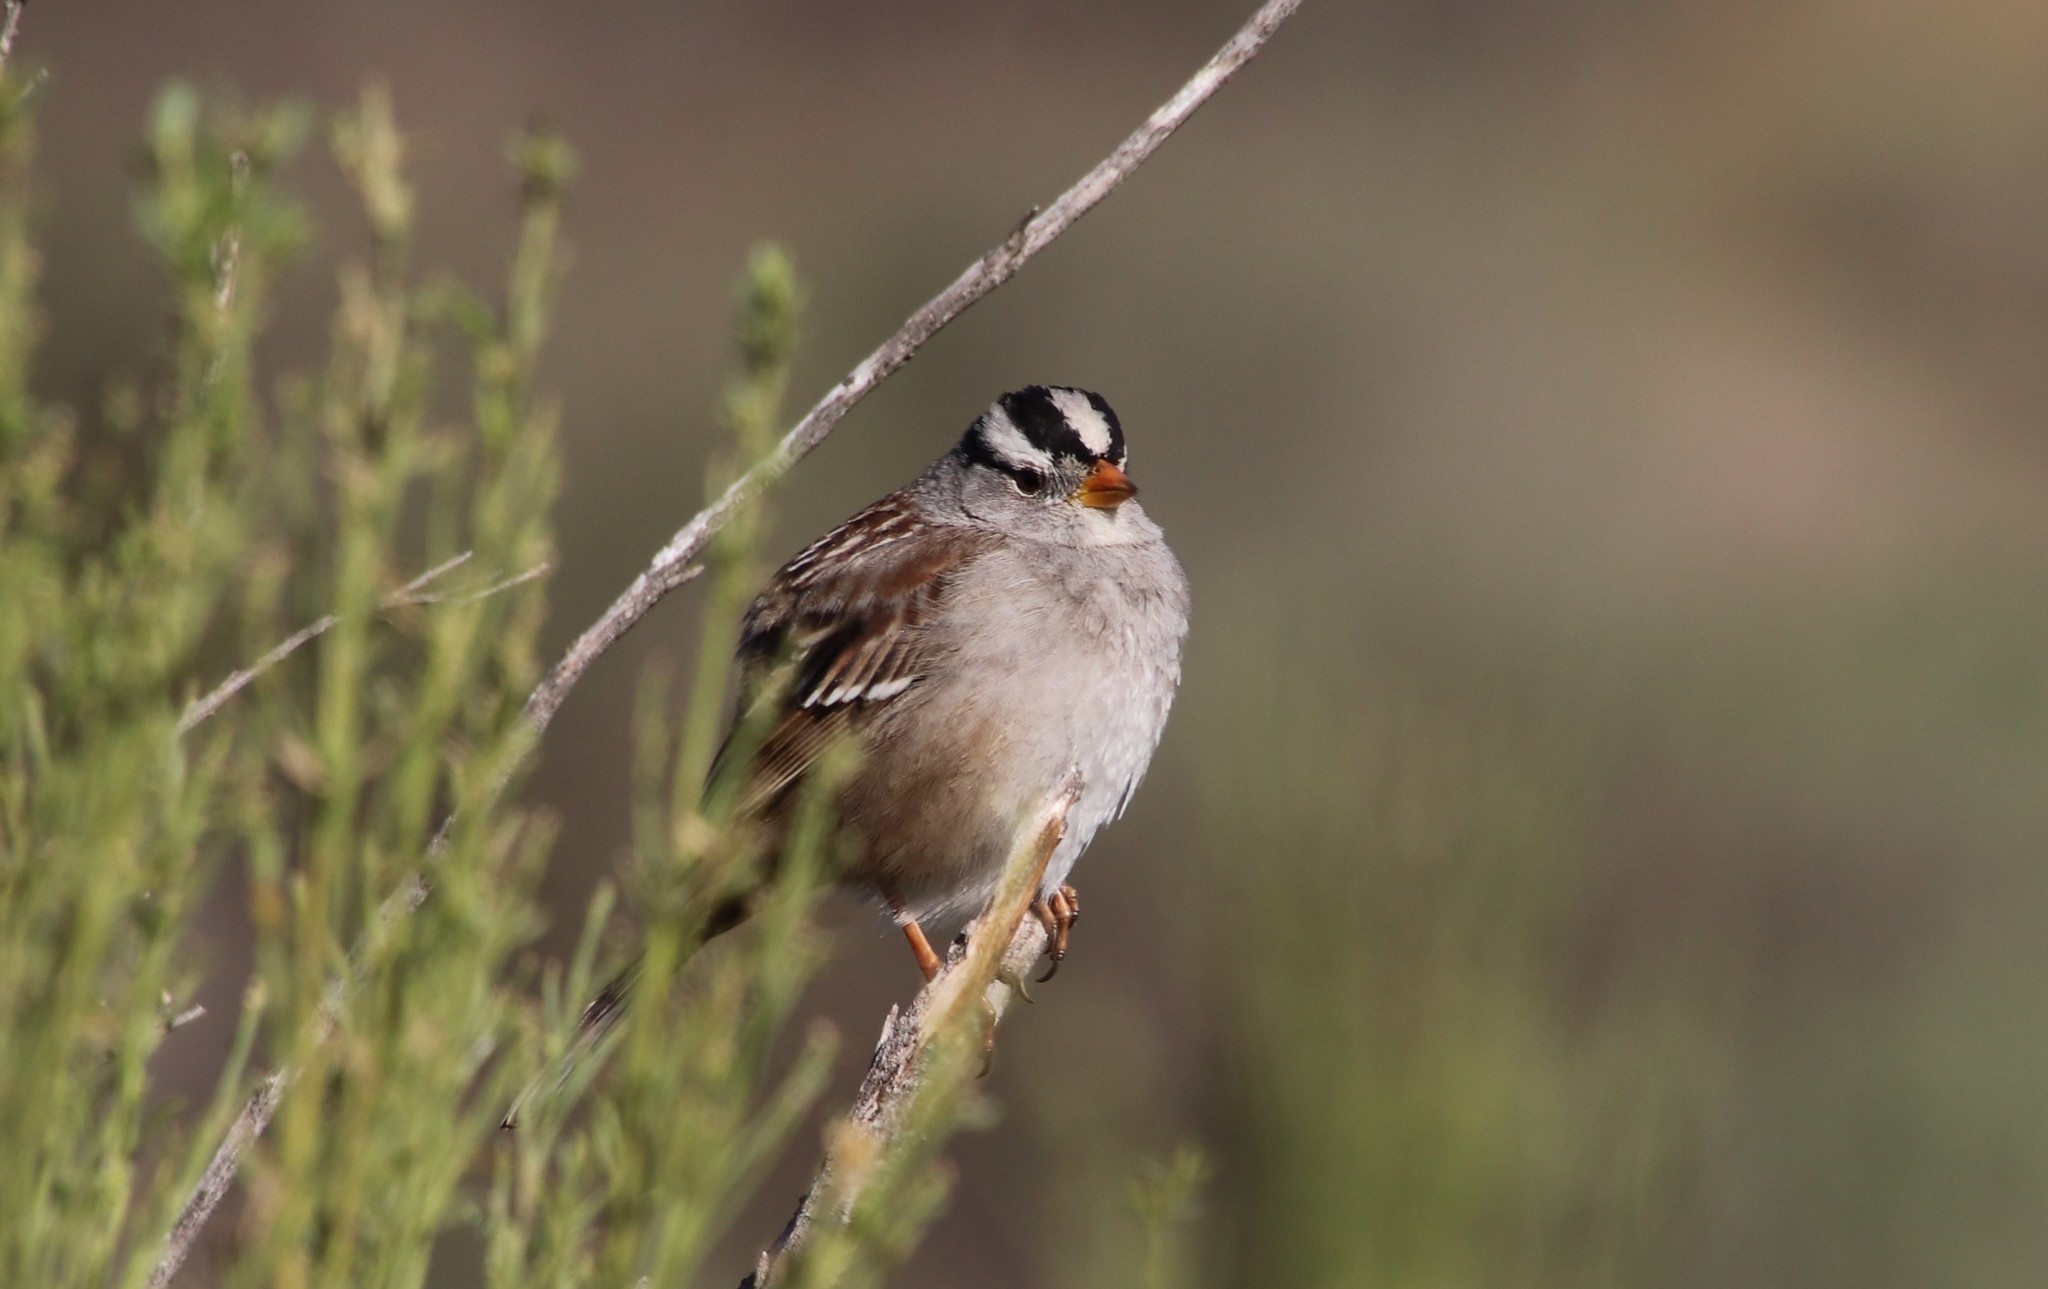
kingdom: Animalia
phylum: Chordata
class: Aves
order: Passeriformes
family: Passerellidae
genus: Zonotrichia
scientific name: Zonotrichia leucophrys
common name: White-crowned sparrow
